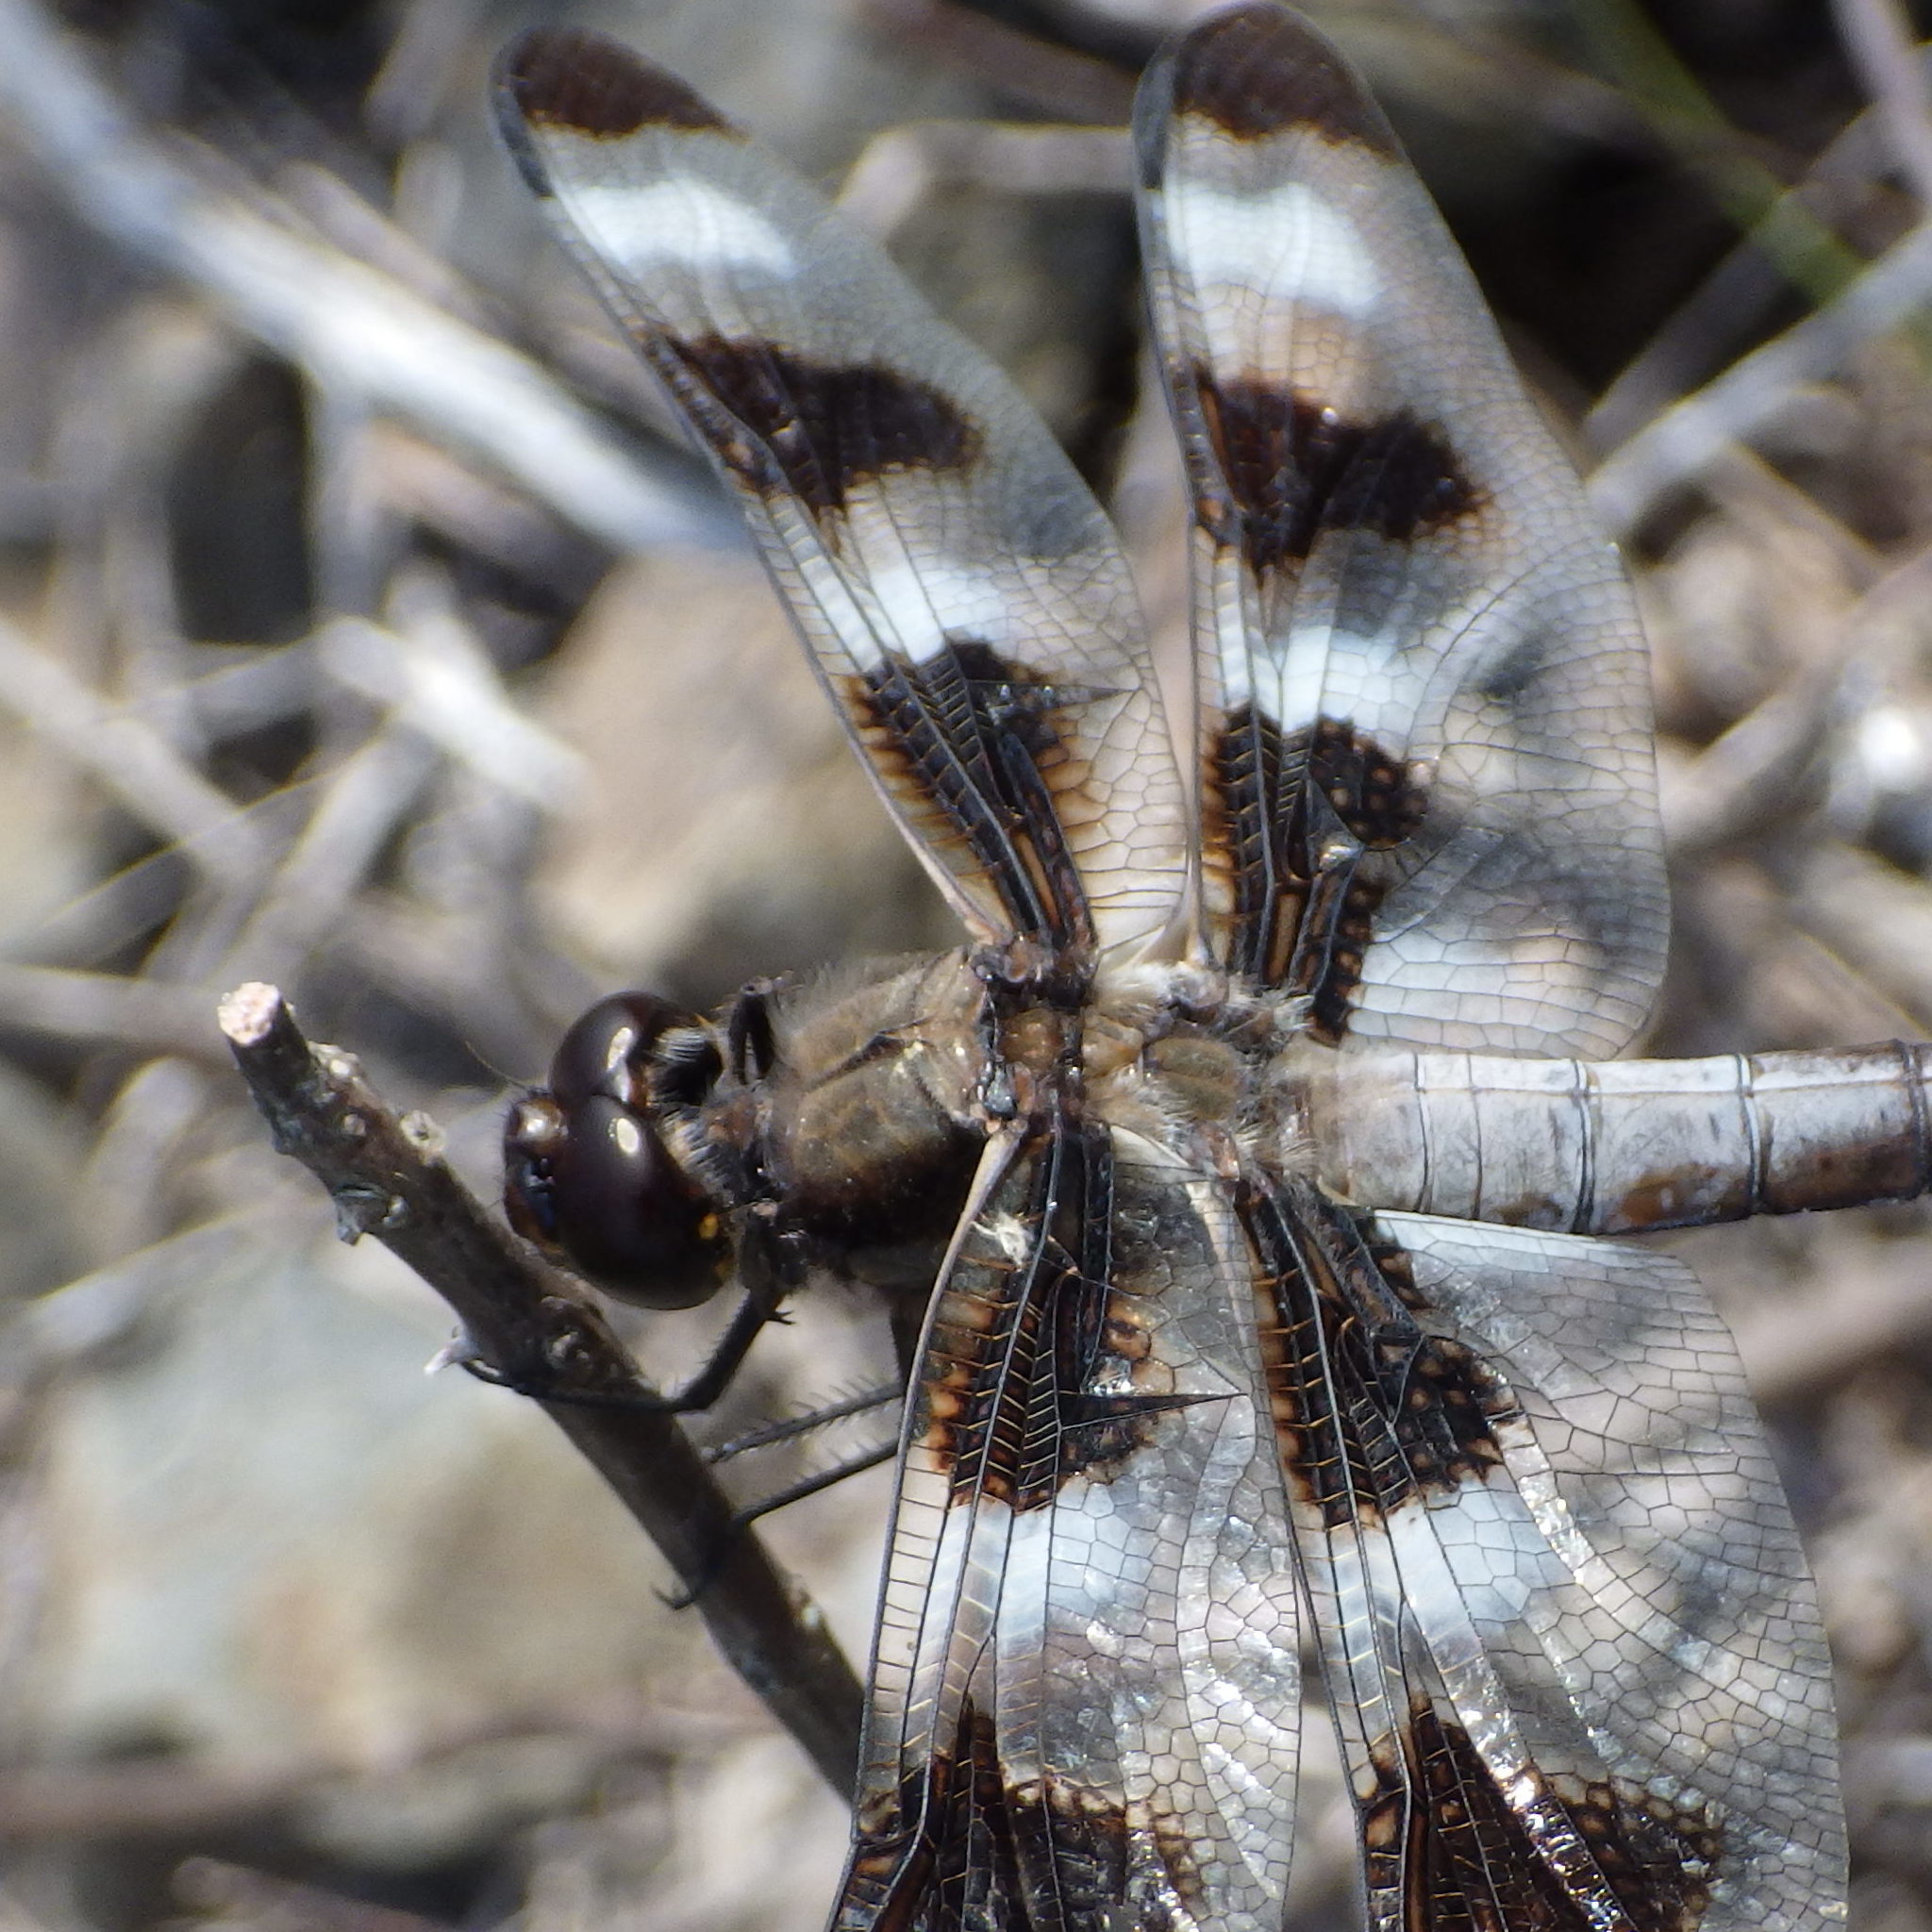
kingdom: Animalia
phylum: Arthropoda
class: Insecta
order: Odonata
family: Libellulidae
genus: Libellula
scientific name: Libellula pulchella
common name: Twelve-spotted skimmer
